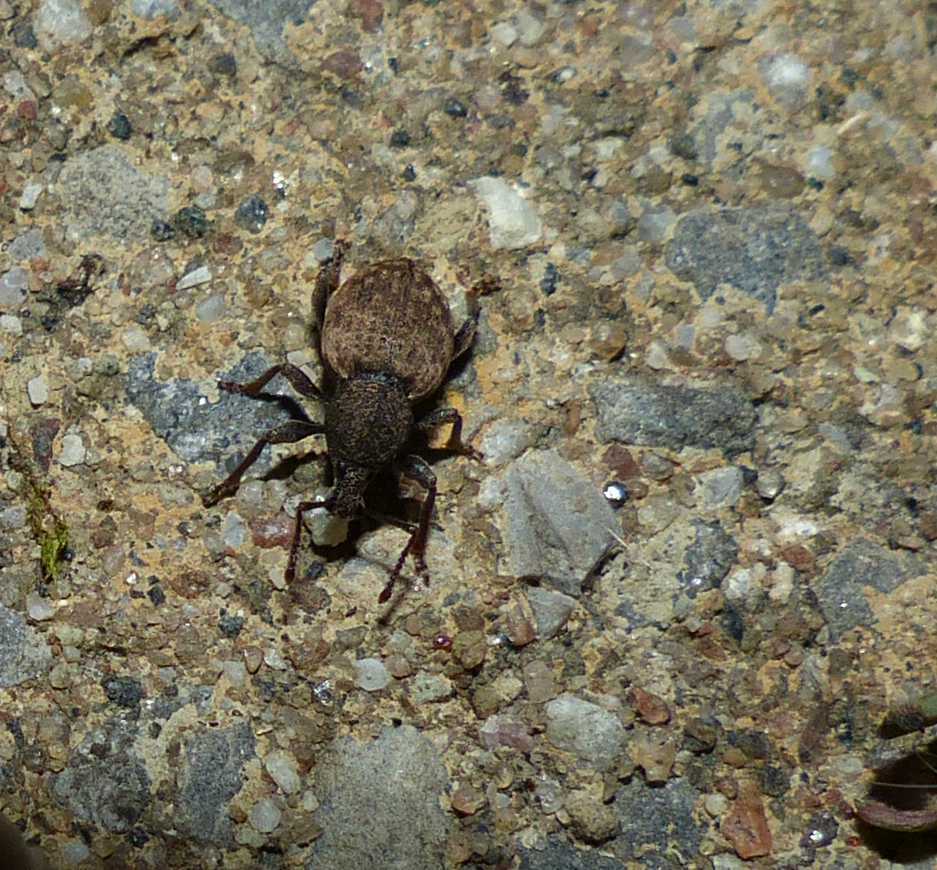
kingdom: Animalia
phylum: Arthropoda
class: Insecta
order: Coleoptera
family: Curculionidae
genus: Otiorhynchus
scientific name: Otiorhynchus raucus
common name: Weevil
